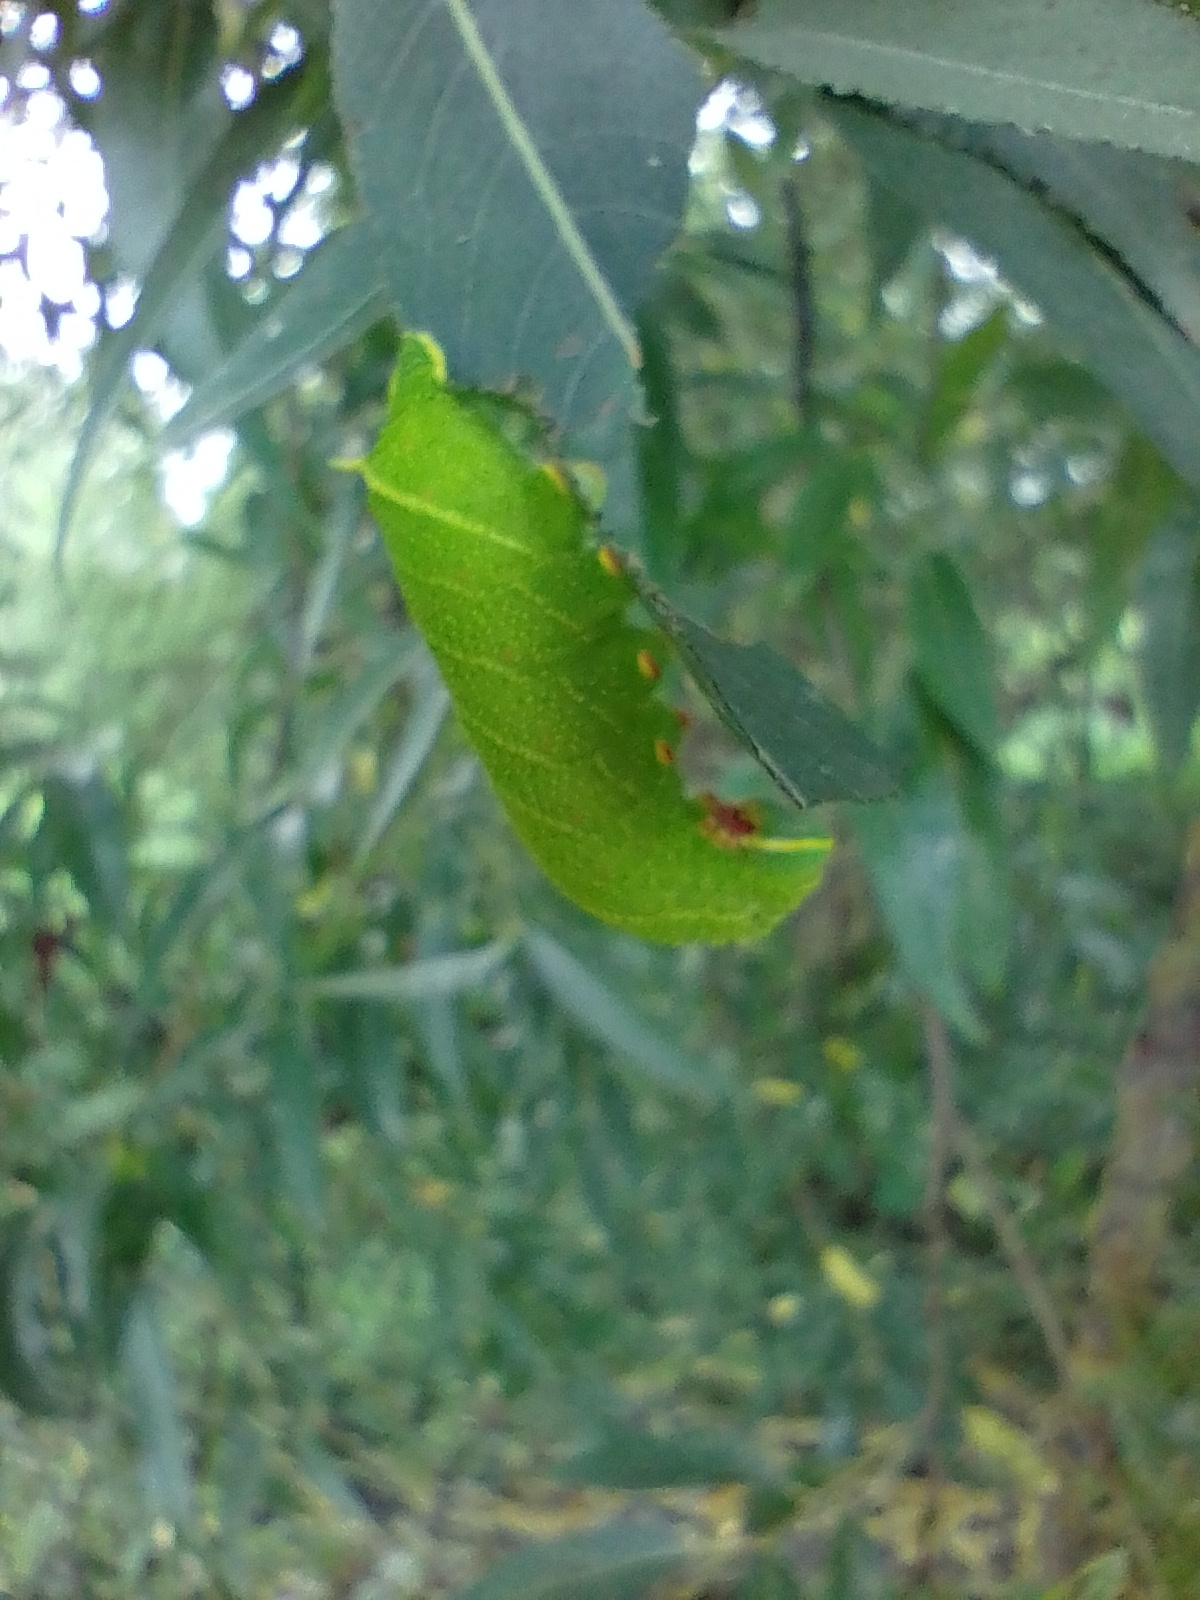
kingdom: Animalia
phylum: Arthropoda
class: Insecta
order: Lepidoptera
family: Sphingidae
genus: Laothoe
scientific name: Laothoe populi
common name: Poplar hawk-moth
